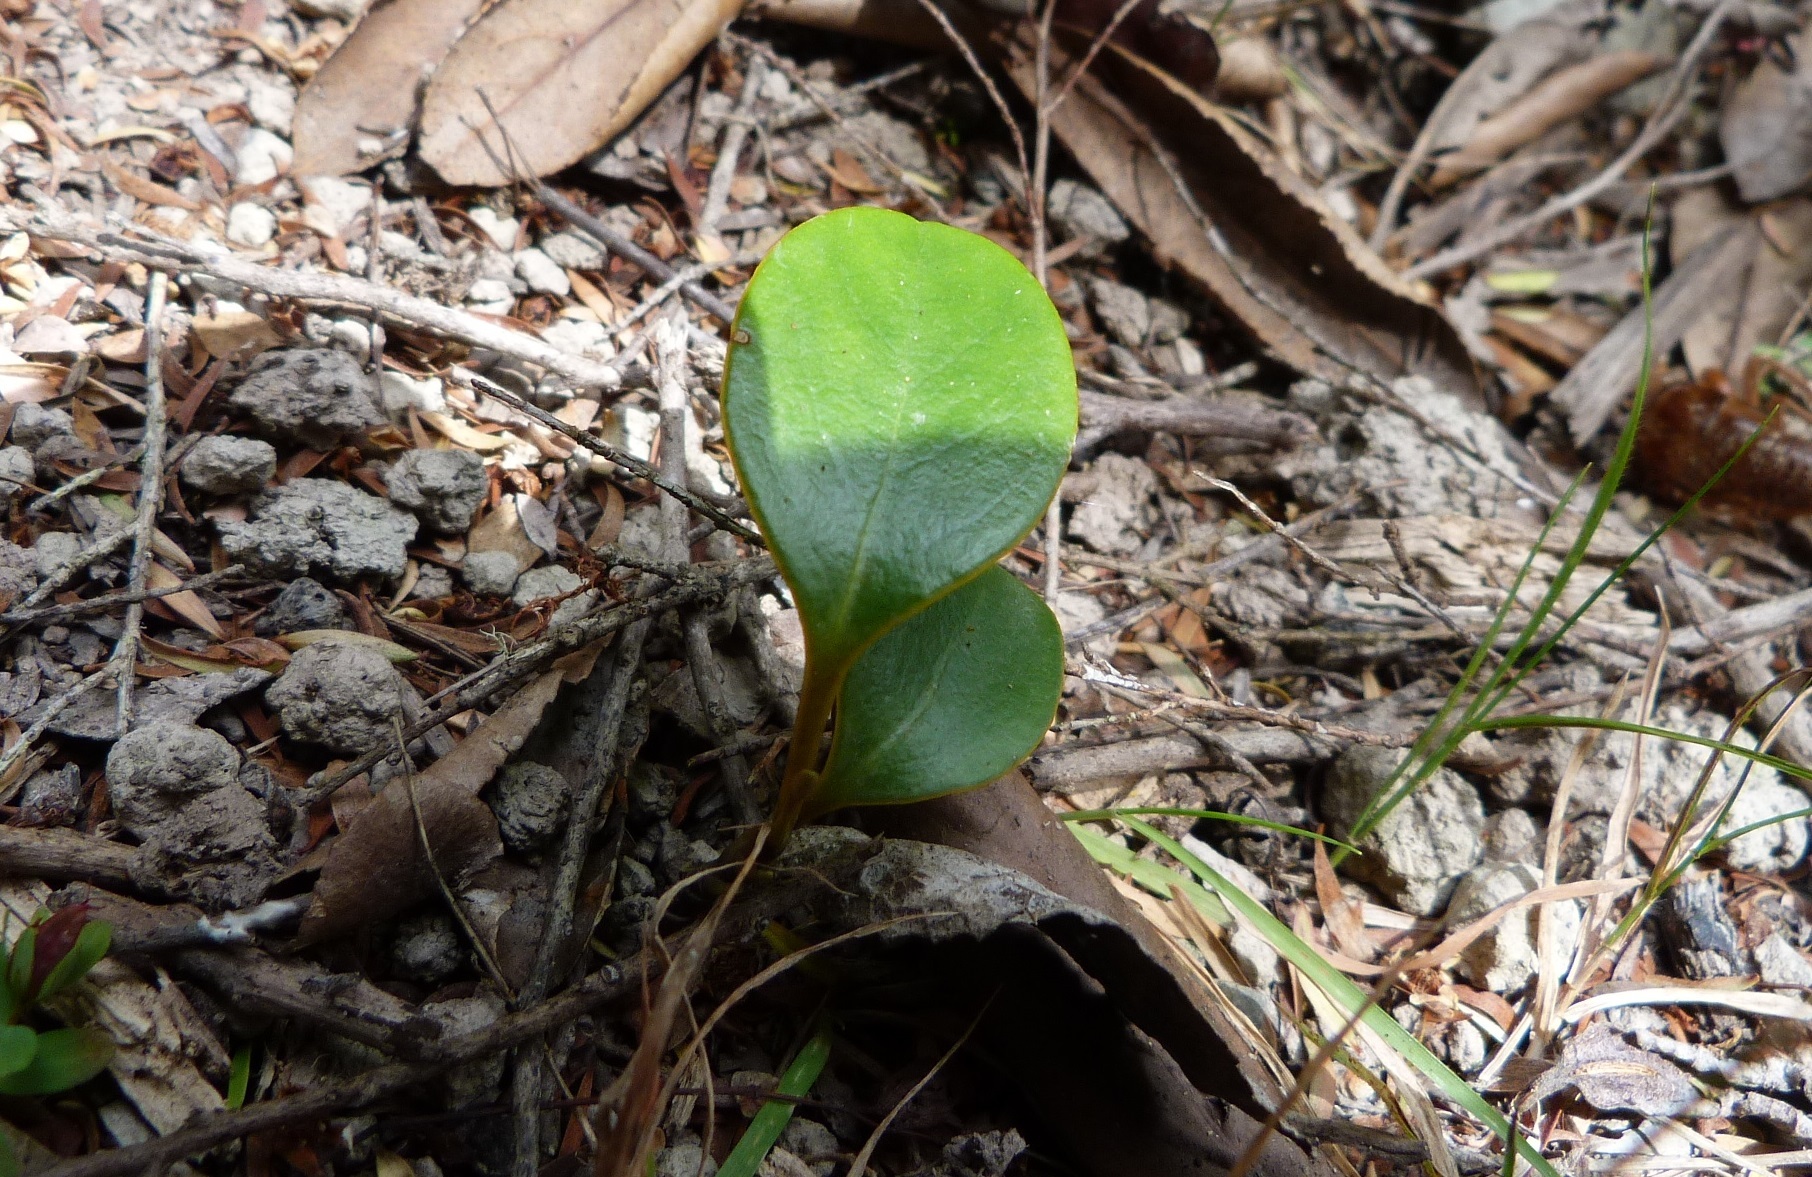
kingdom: Plantae
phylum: Tracheophyta
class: Magnoliopsida
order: Apiales
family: Griseliniaceae
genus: Griselinia
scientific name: Griselinia littoralis
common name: New zealand broadleaf
